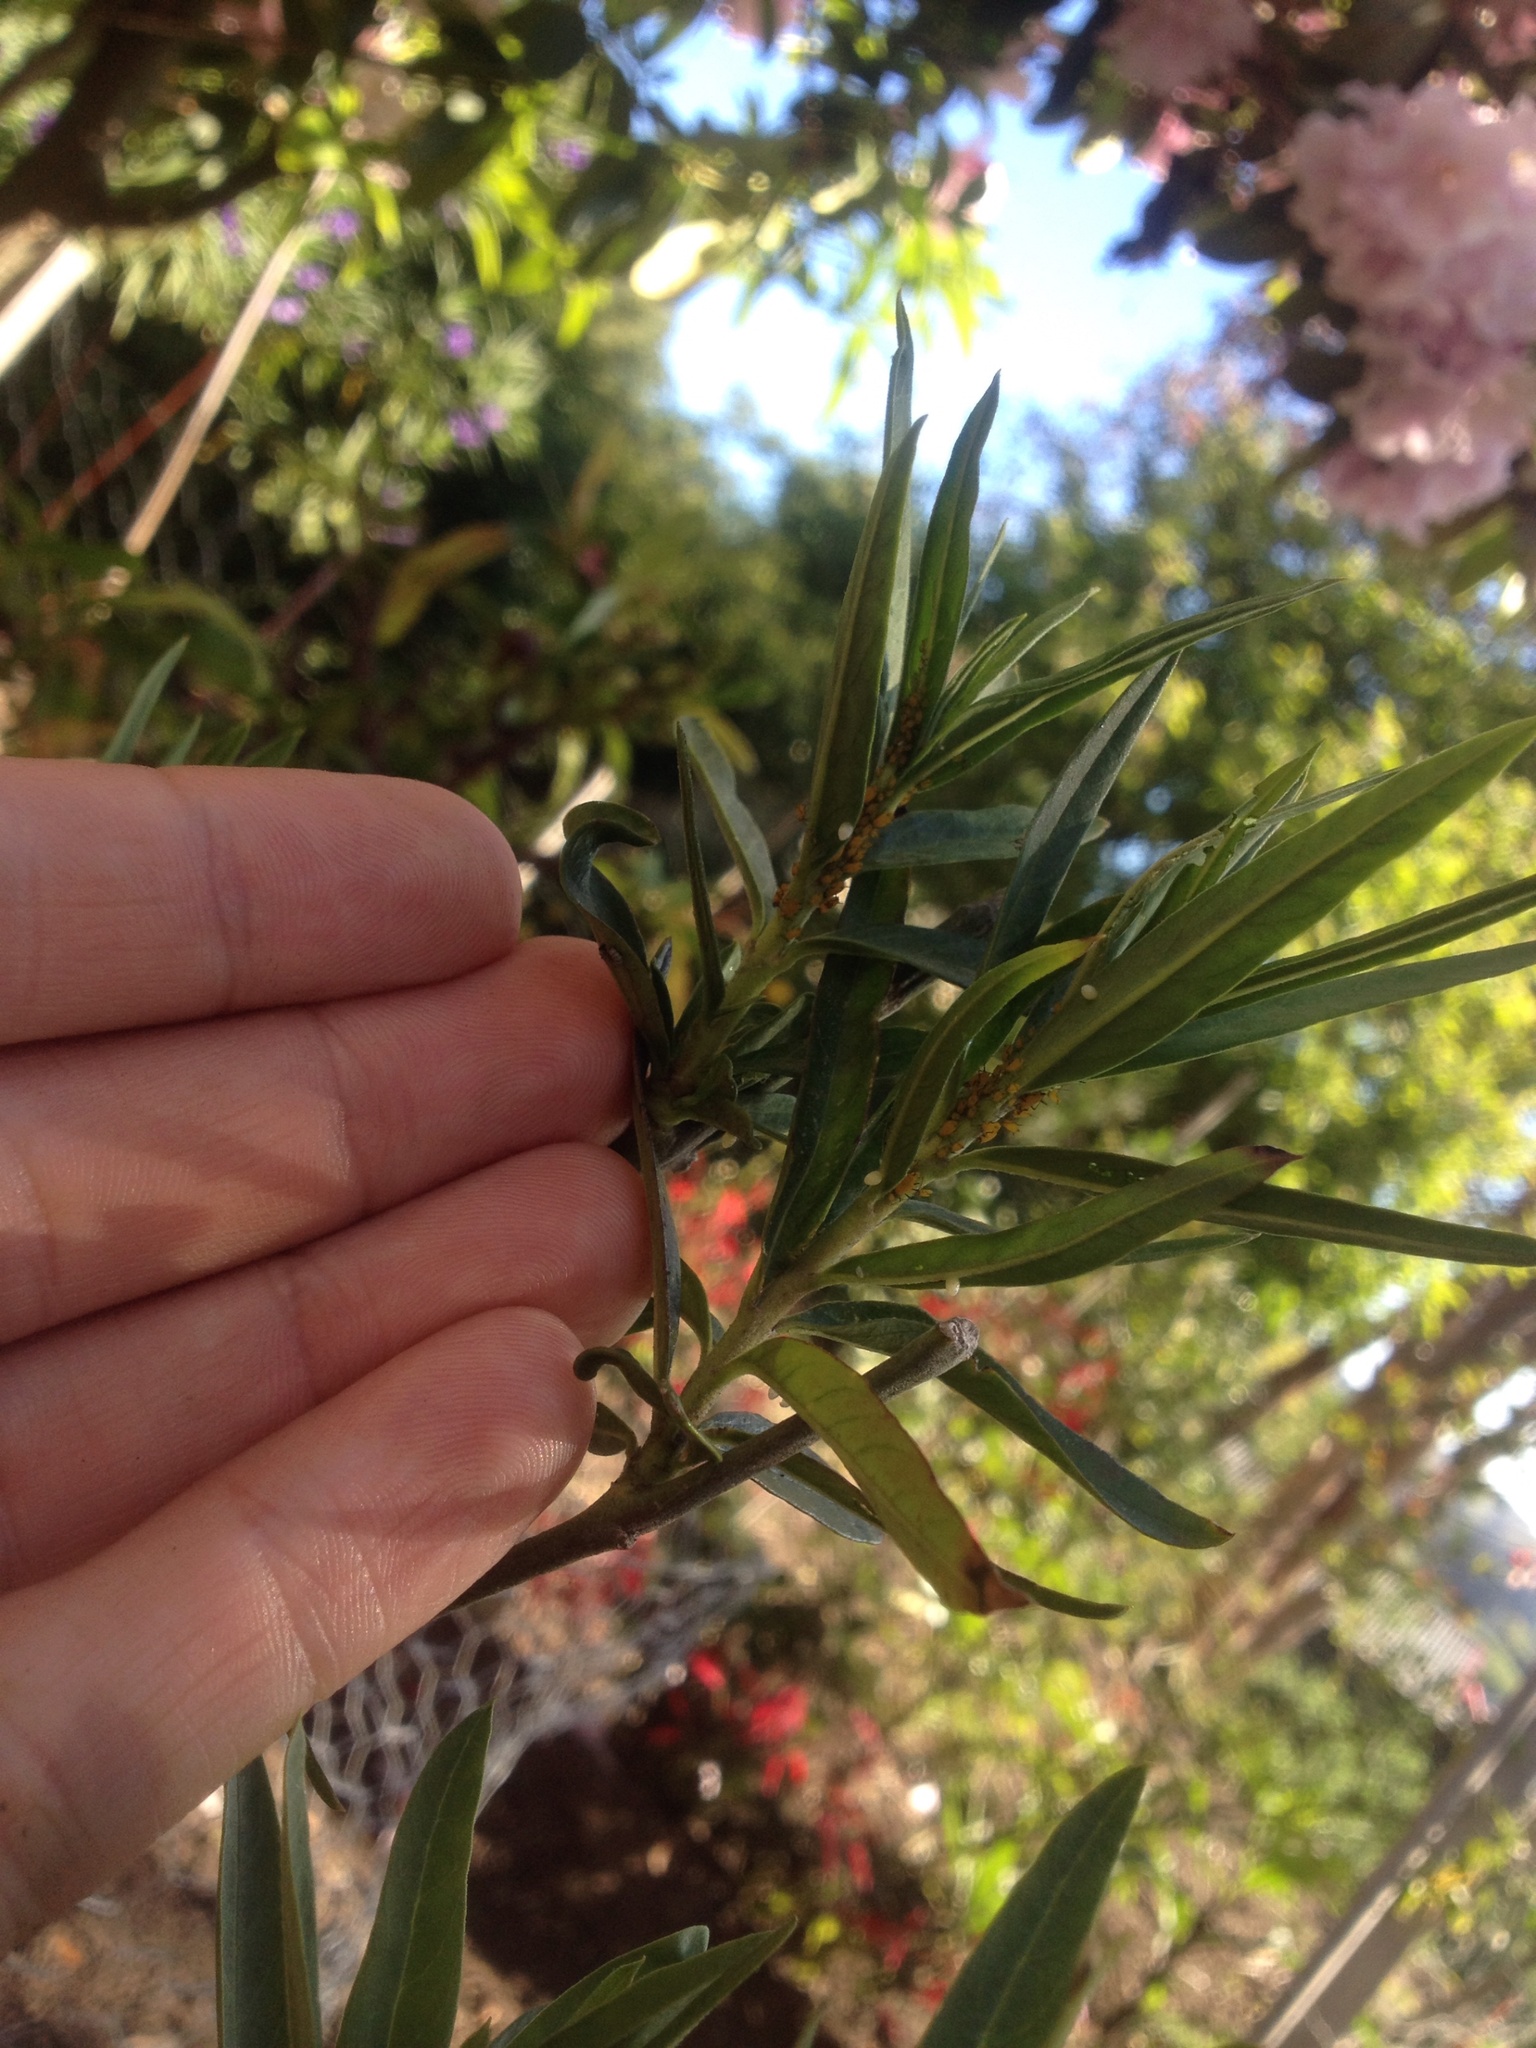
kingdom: Animalia
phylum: Arthropoda
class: Insecta
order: Lepidoptera
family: Nymphalidae
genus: Danaus
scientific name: Danaus plexippus
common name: Monarch
